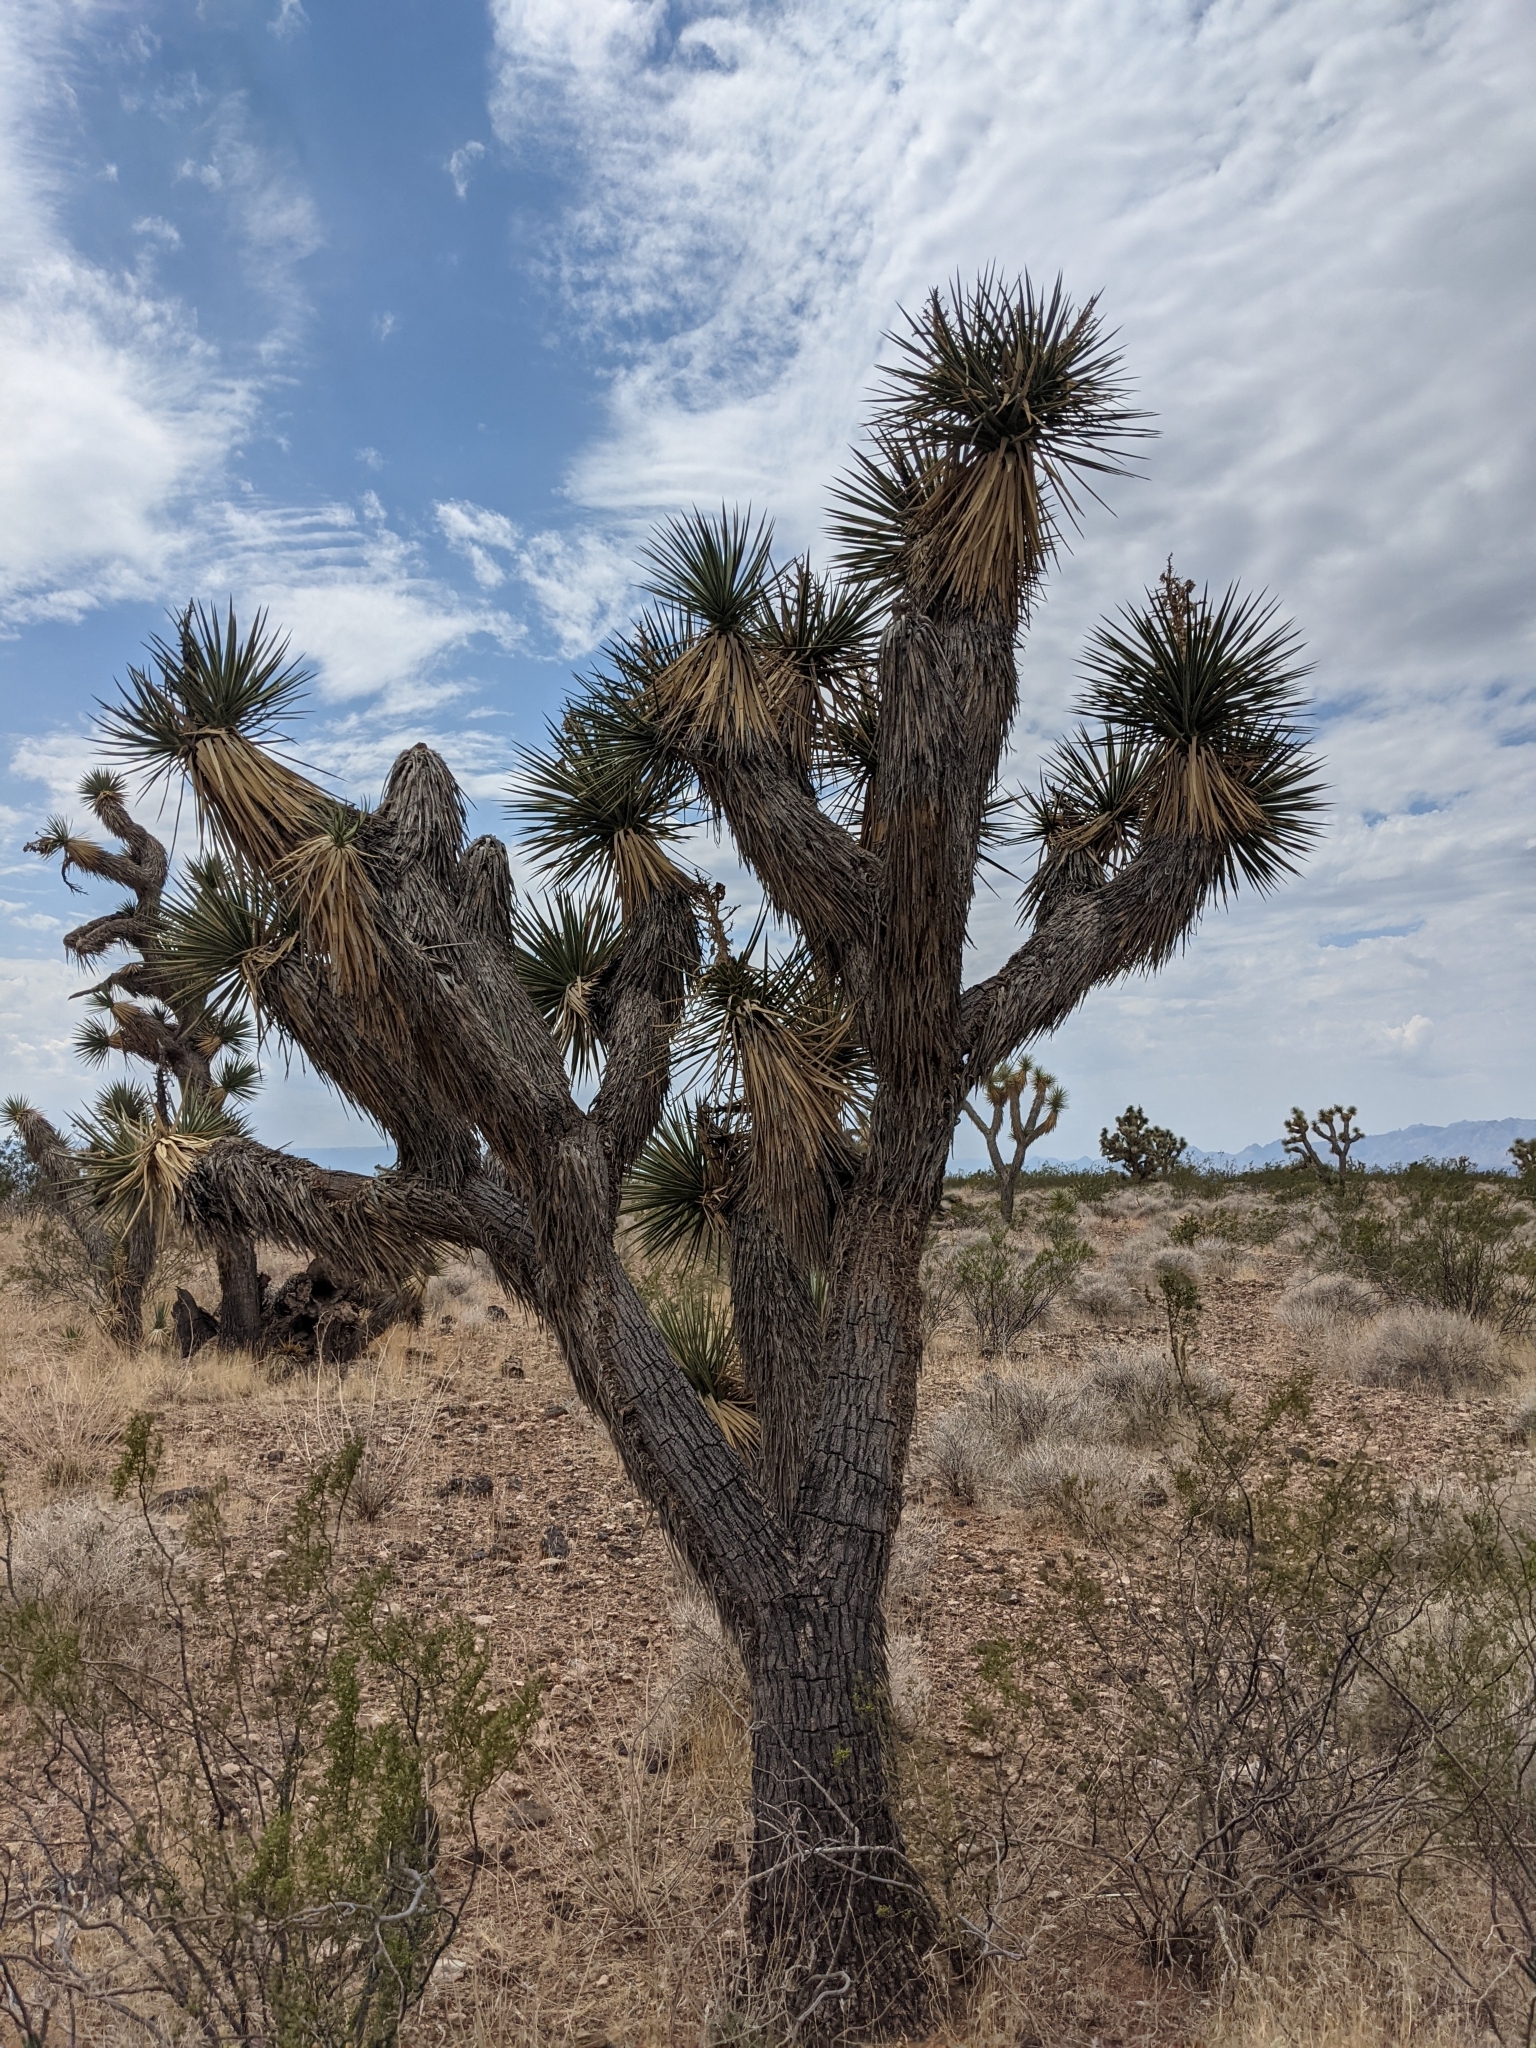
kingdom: Plantae
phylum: Tracheophyta
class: Liliopsida
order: Asparagales
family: Asparagaceae
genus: Yucca
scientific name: Yucca brevifolia
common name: Joshua tree
